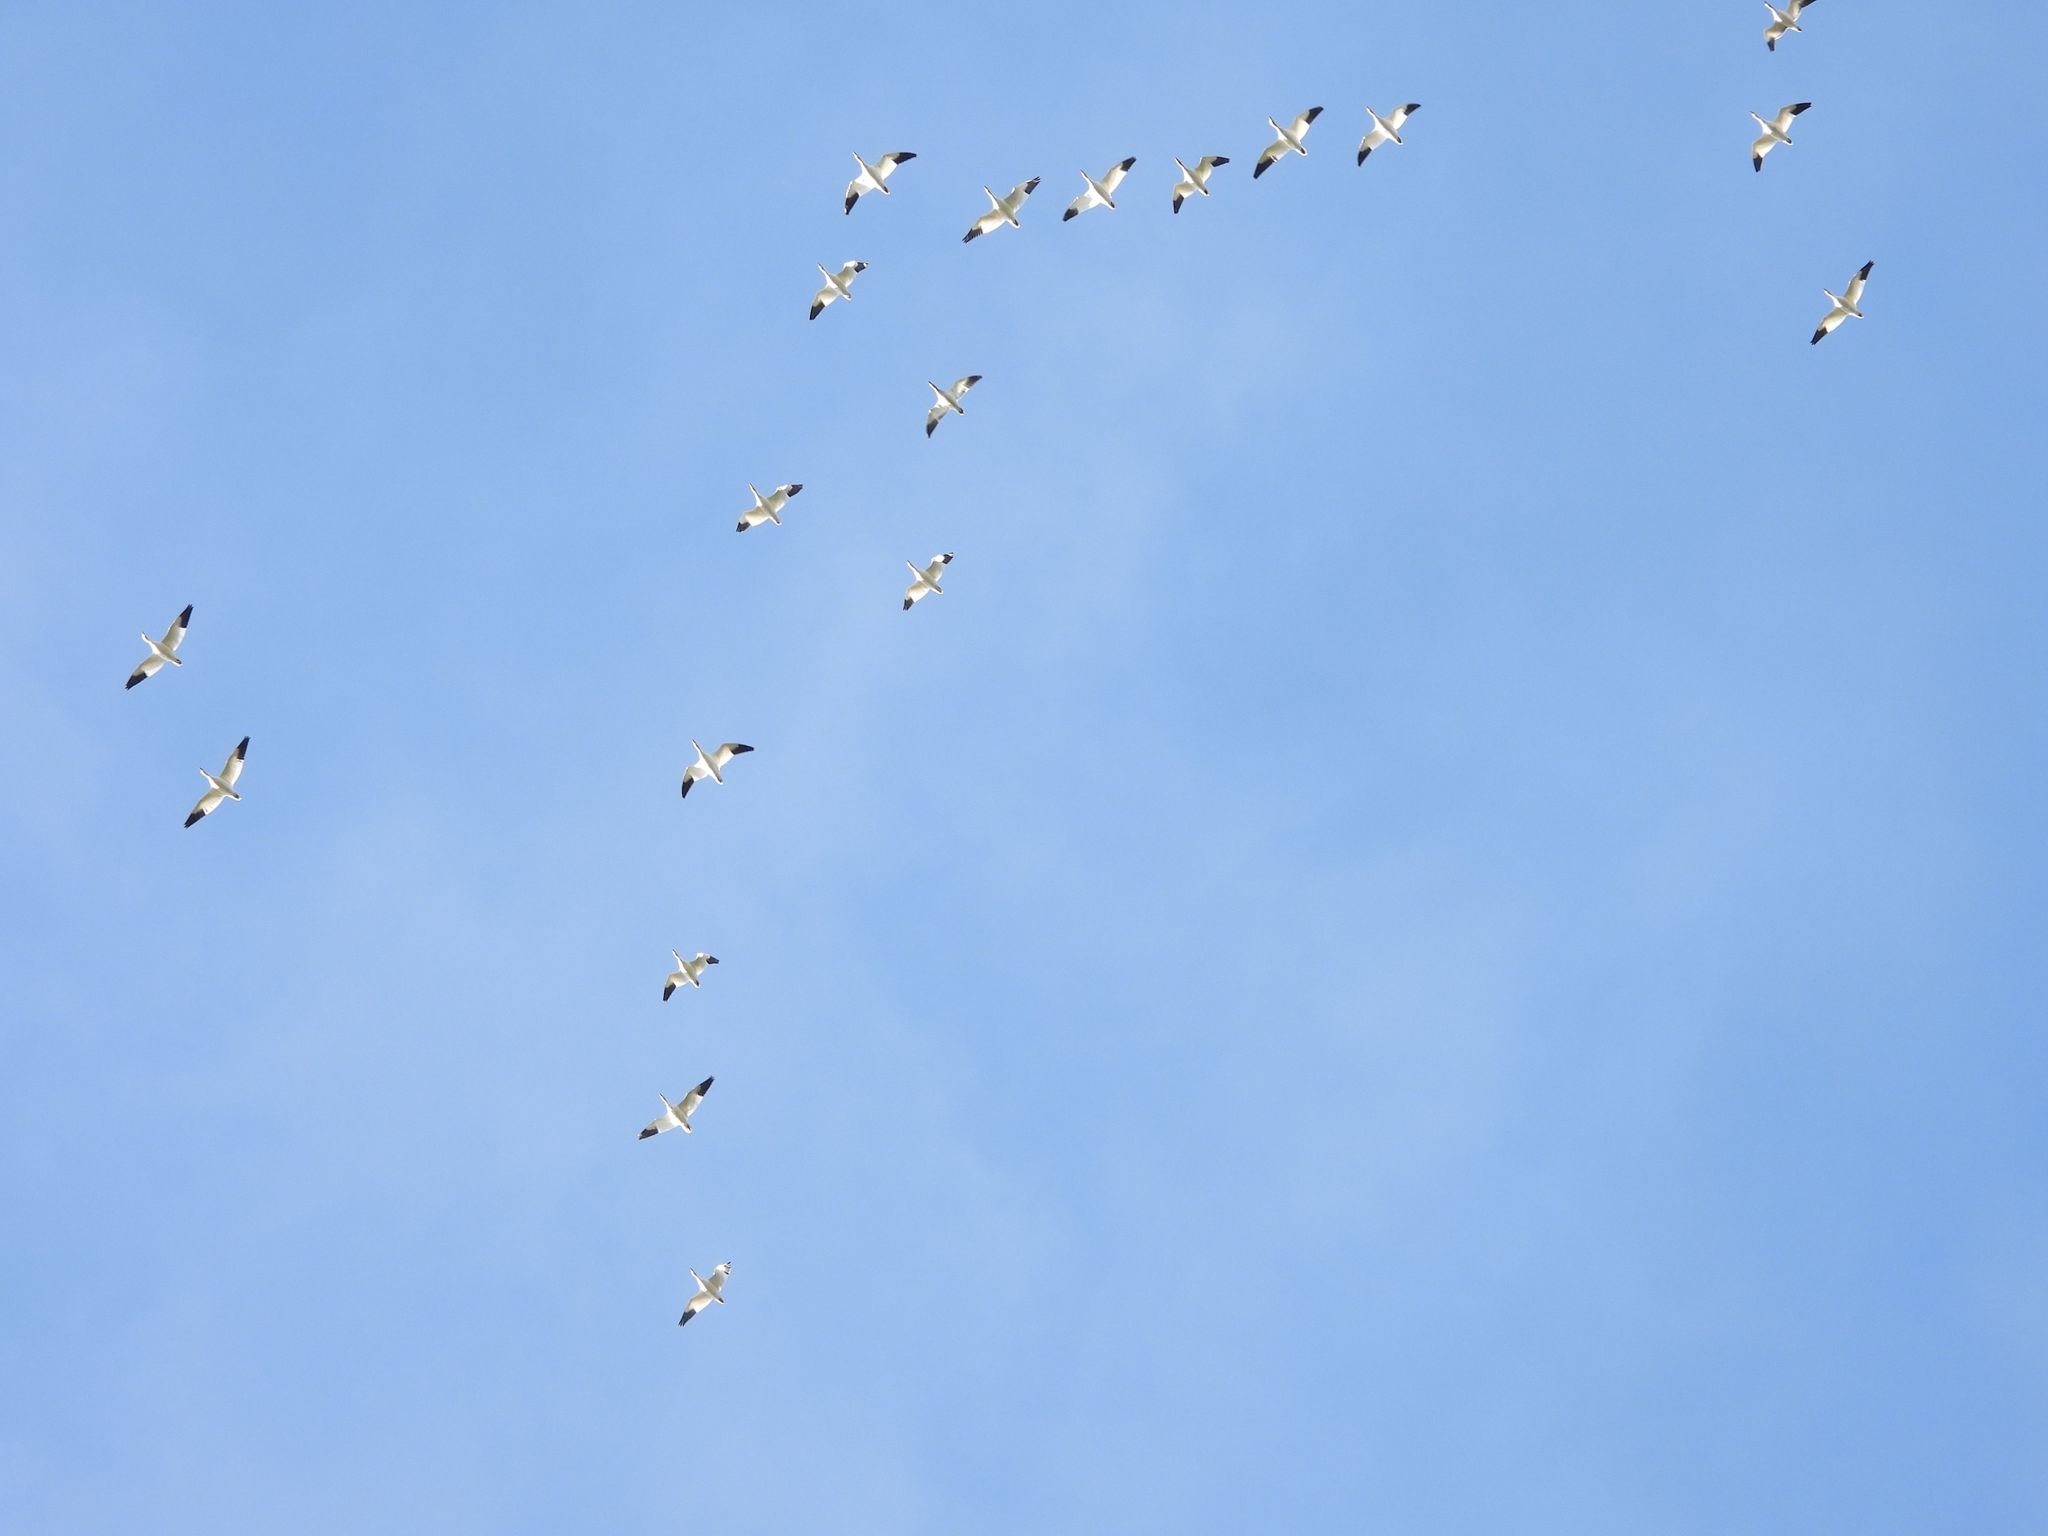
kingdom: Animalia
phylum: Chordata
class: Aves
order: Anseriformes
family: Anatidae
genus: Anser
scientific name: Anser caerulescens
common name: Snow goose
